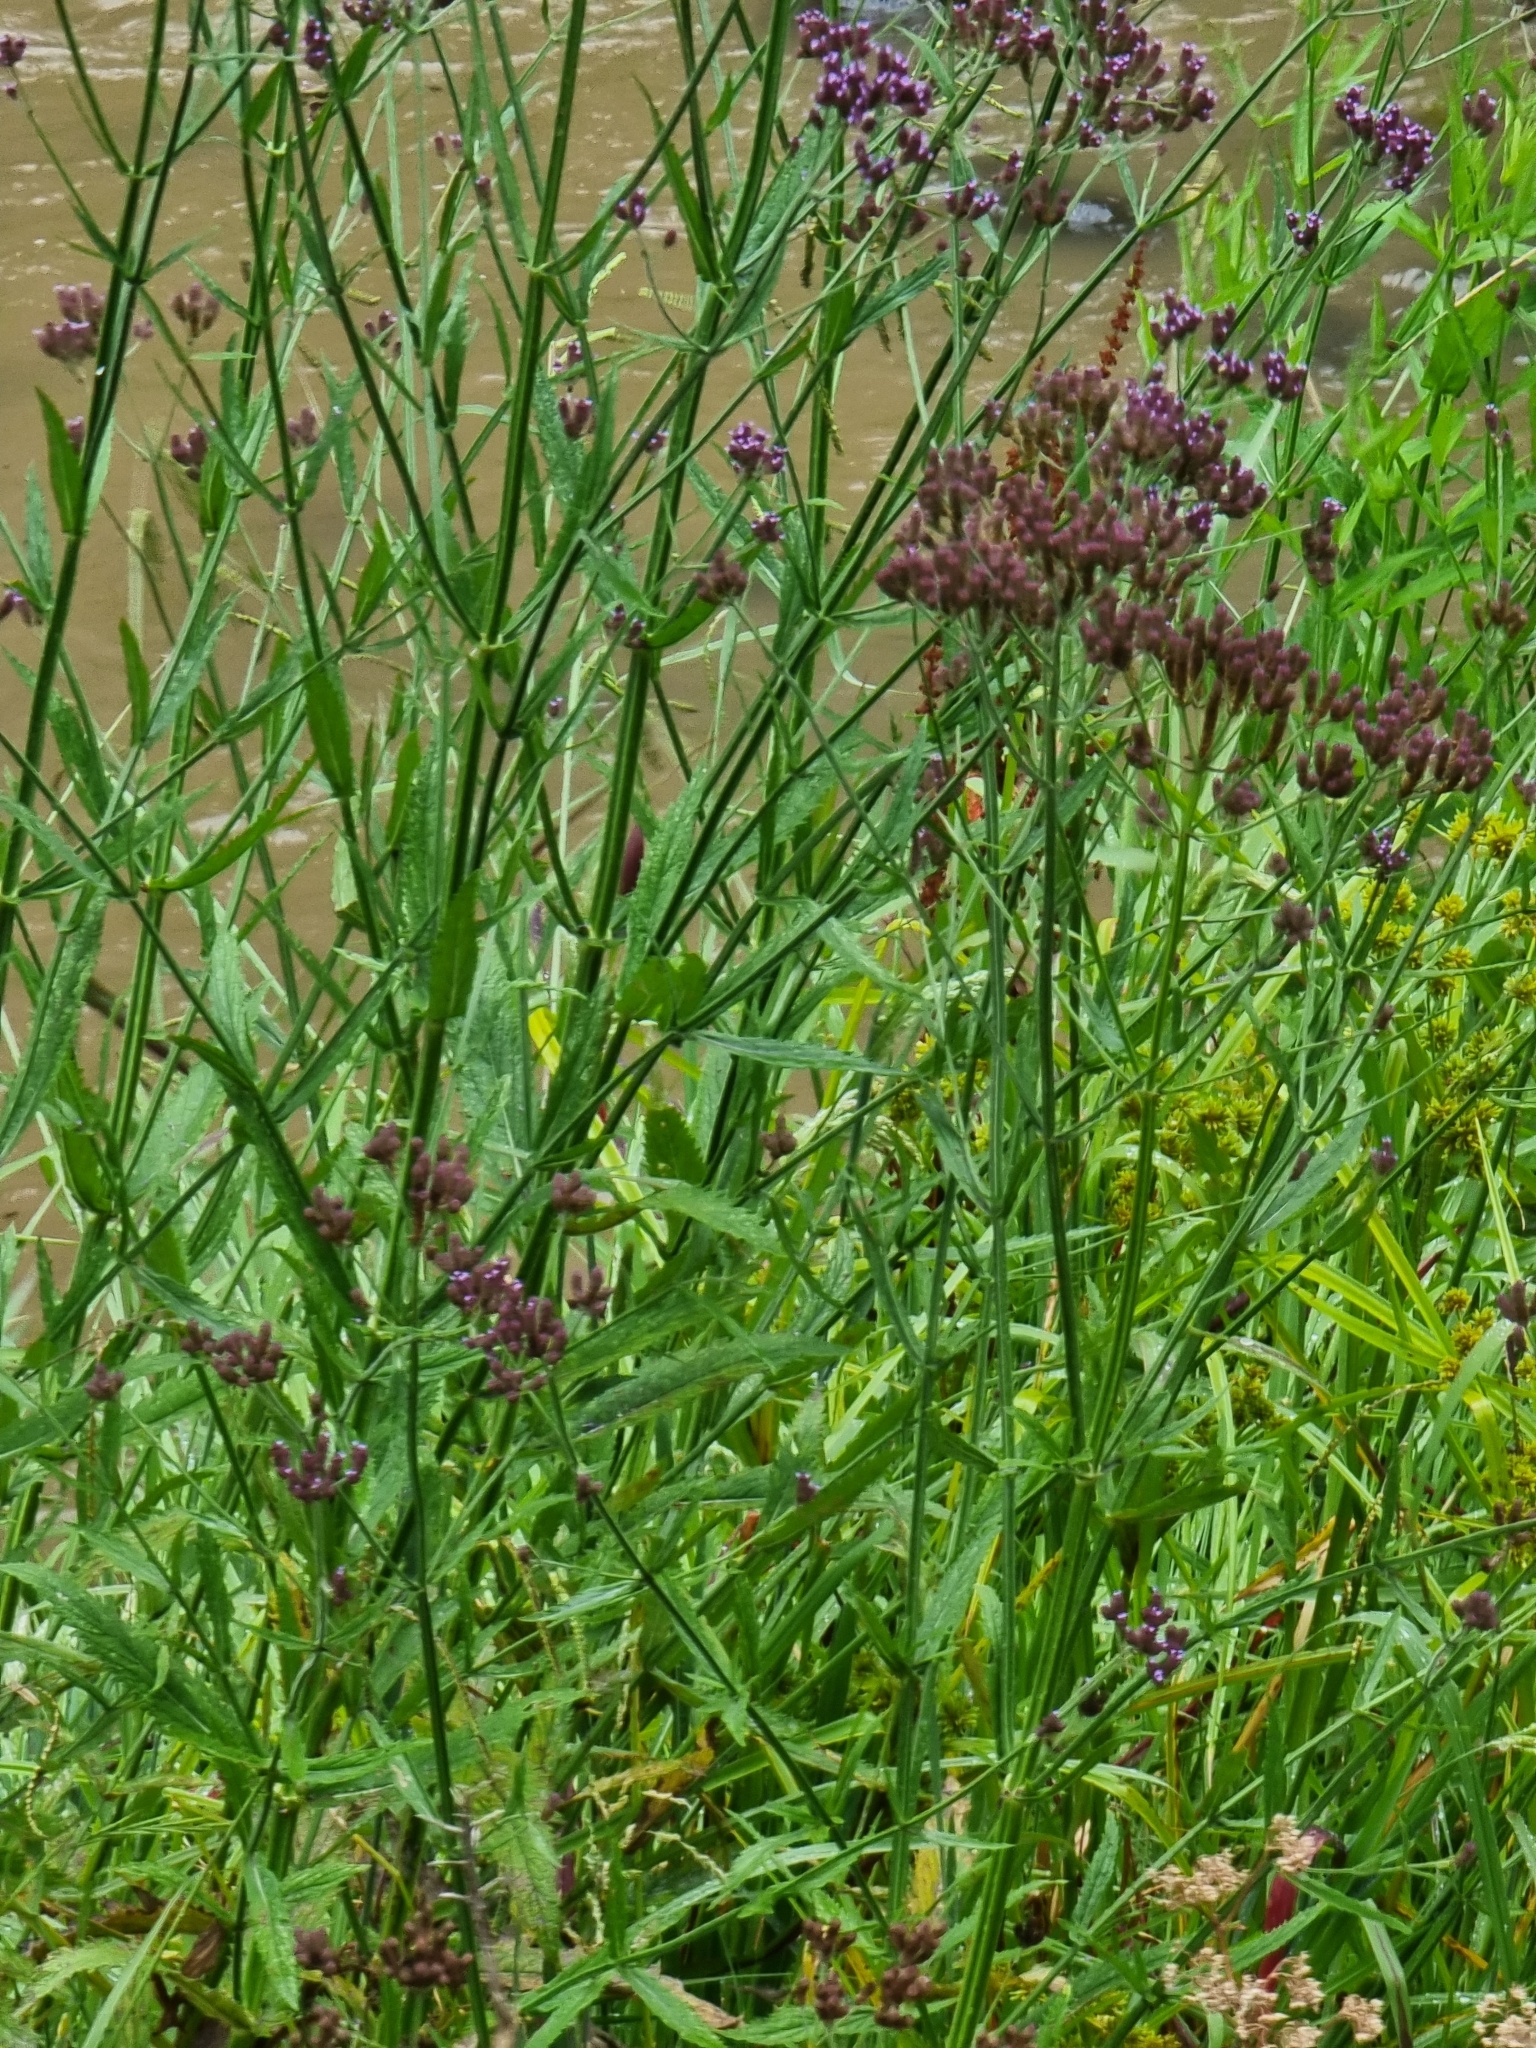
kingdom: Plantae
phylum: Tracheophyta
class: Magnoliopsida
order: Lamiales
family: Verbenaceae
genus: Verbena
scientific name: Verbena bonariensis
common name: Purpletop vervain
